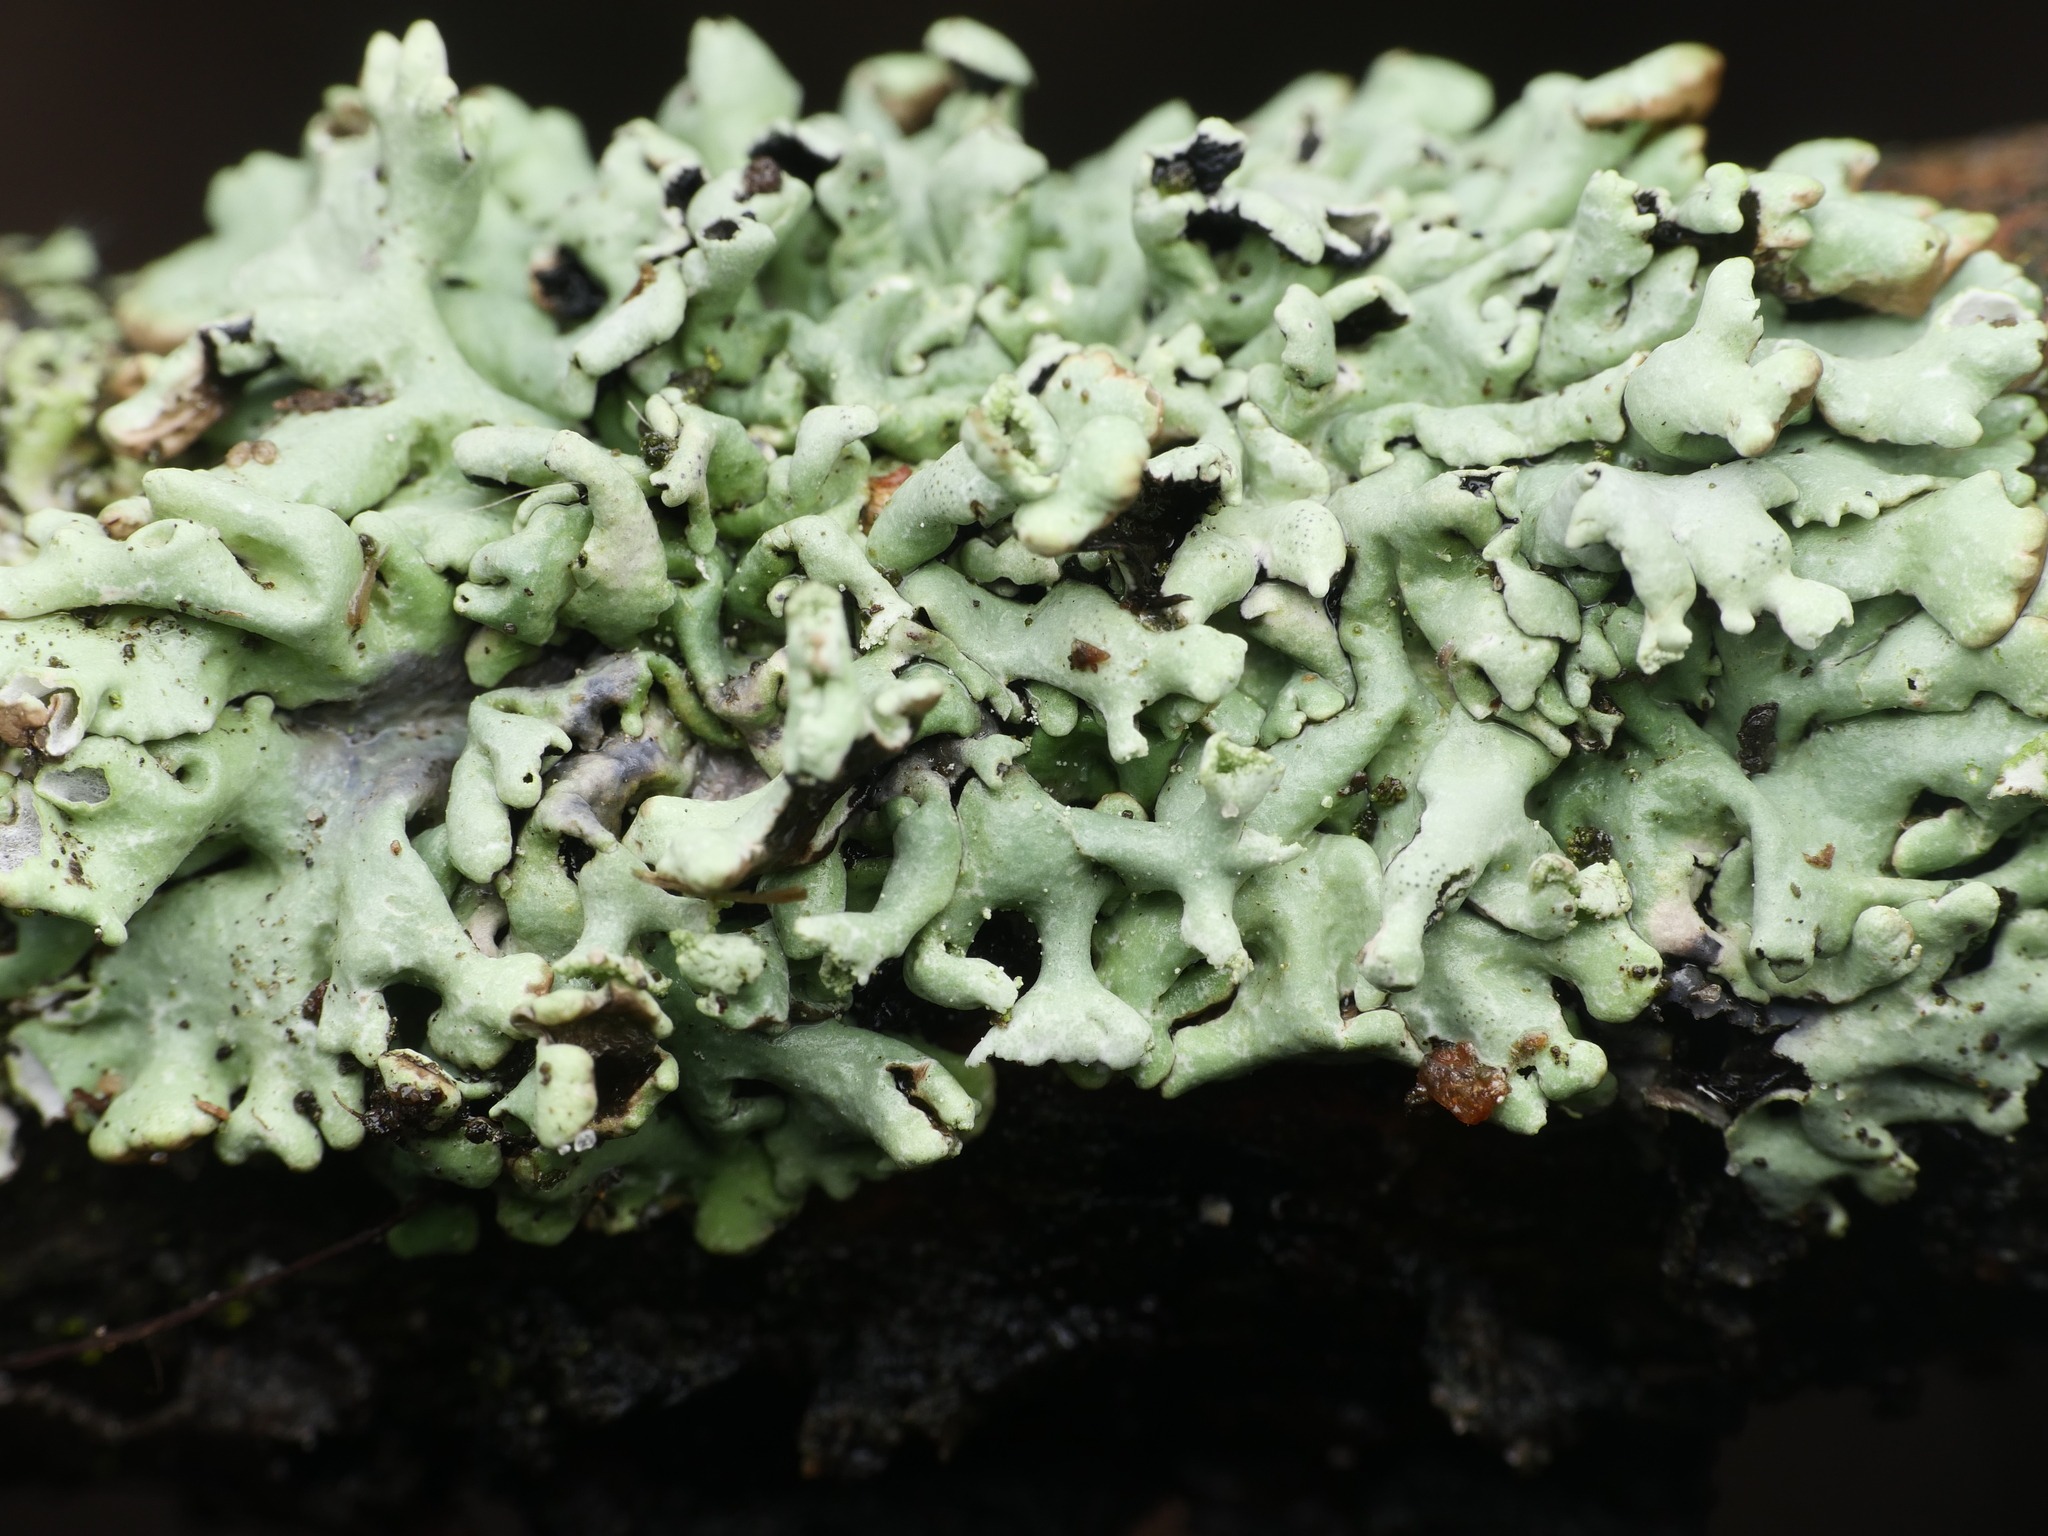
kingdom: Fungi
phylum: Ascomycota
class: Lecanoromycetes
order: Lecanorales
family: Parmeliaceae
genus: Hypogymnia
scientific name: Hypogymnia physodes
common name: Dark crottle
